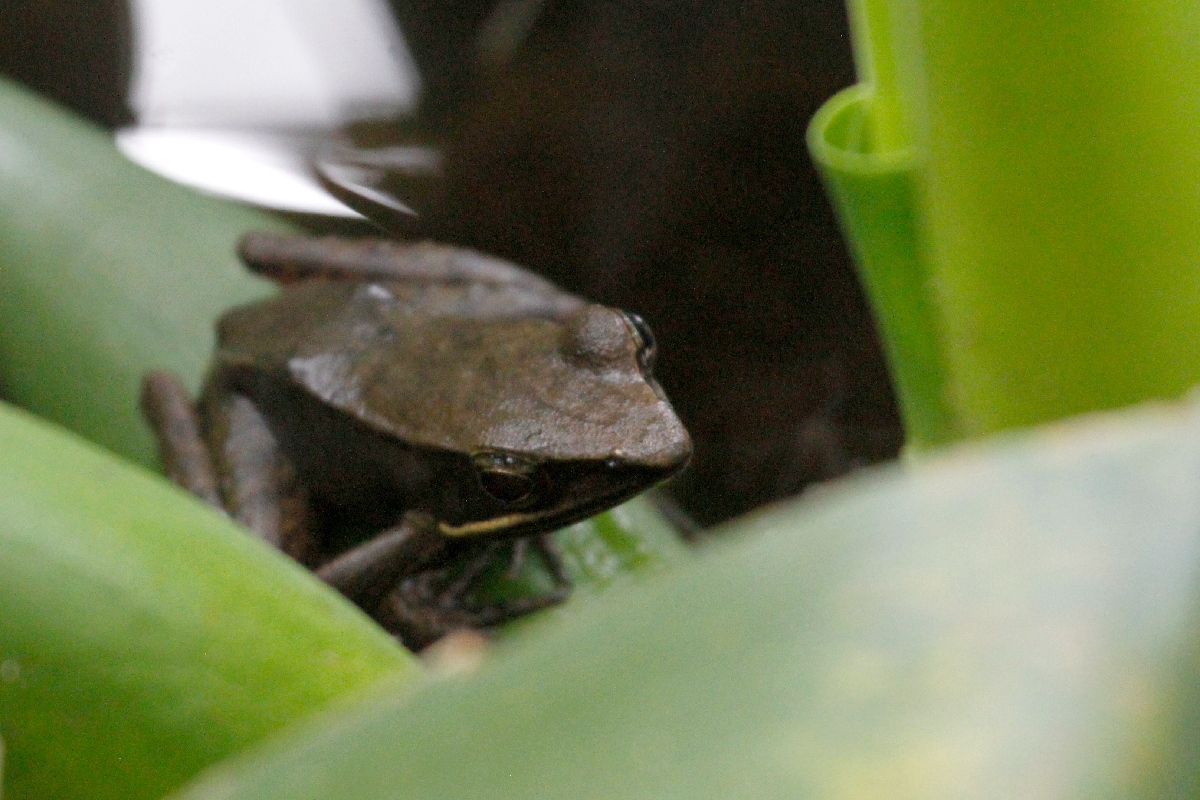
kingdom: Animalia
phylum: Chordata
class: Amphibia
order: Anura
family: Ranidae
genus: Lithobates
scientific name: Lithobates warszewitschii
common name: Warszewitsch's frog
